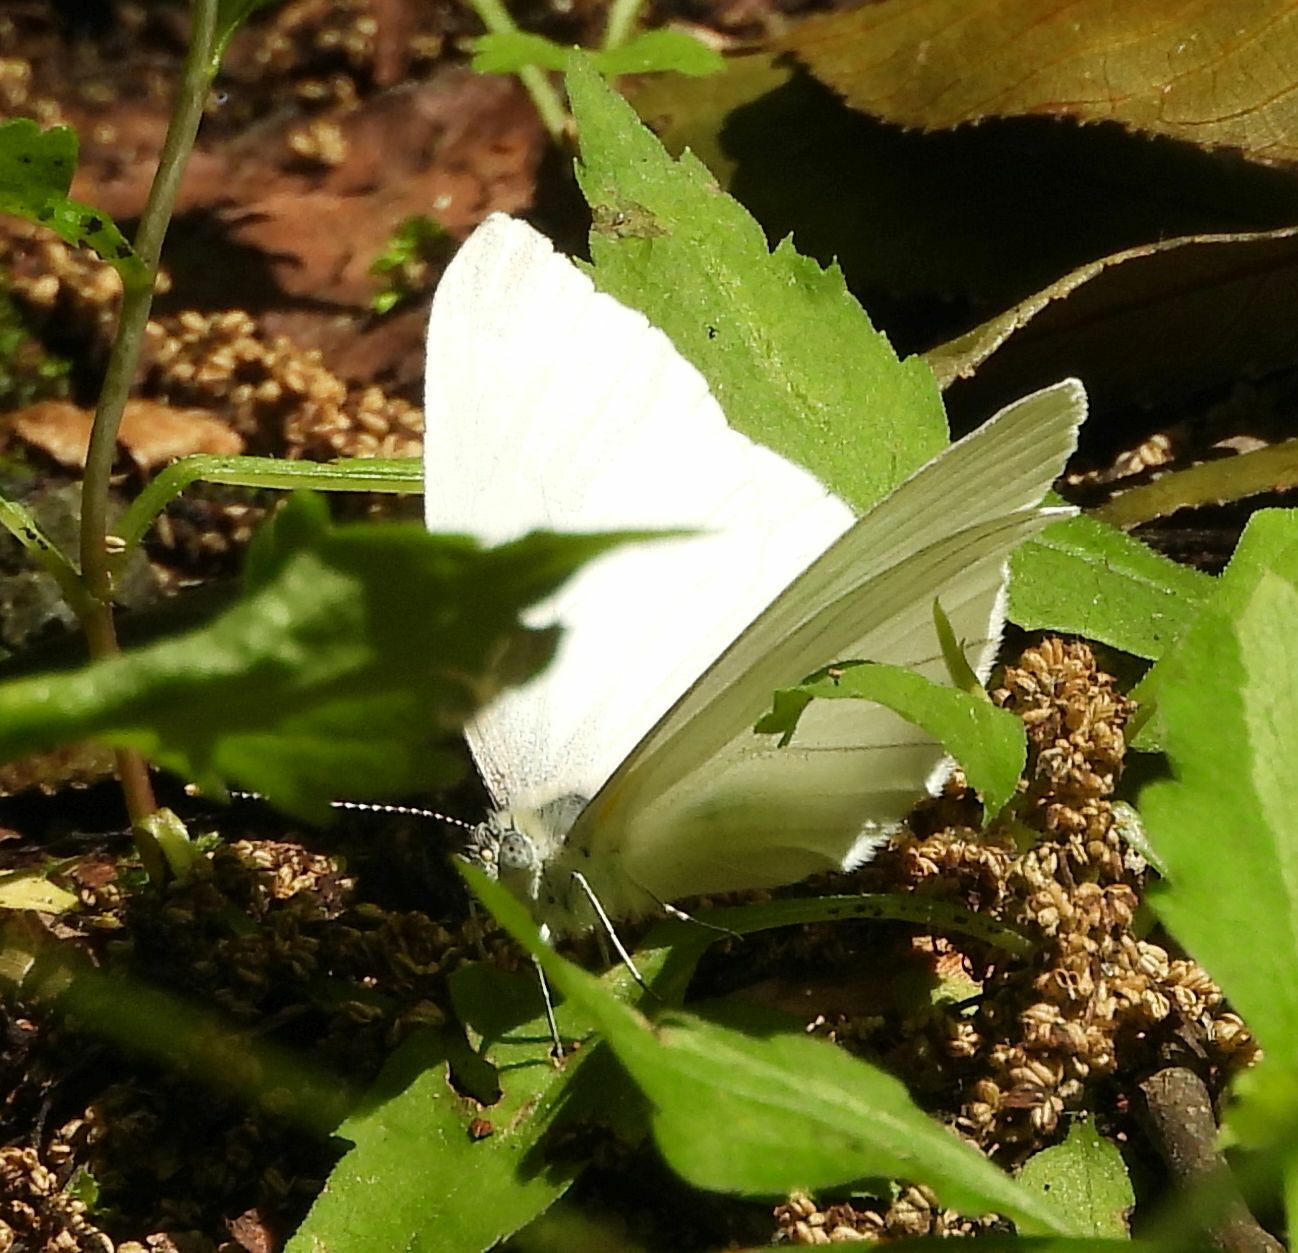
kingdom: Animalia
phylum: Arthropoda
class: Insecta
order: Lepidoptera
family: Pieridae
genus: Pieris
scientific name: Pieris oleracea
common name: Mustard white
